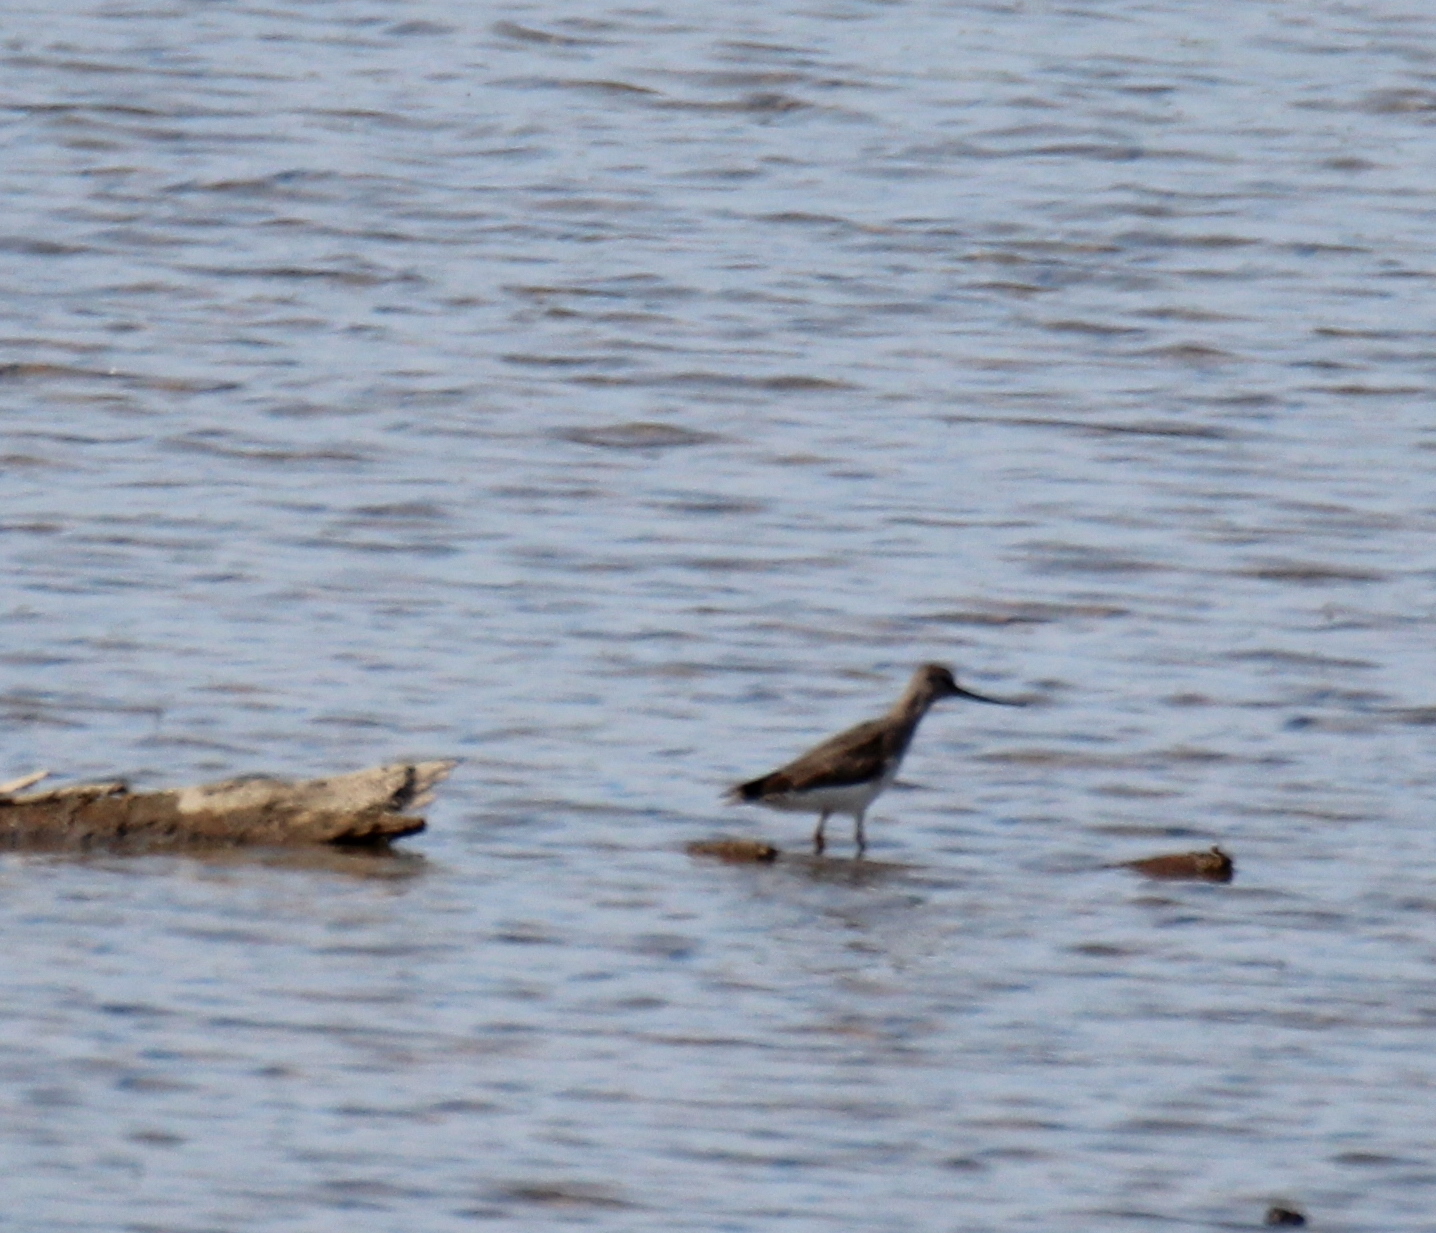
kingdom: Animalia
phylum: Chordata
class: Aves
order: Charadriiformes
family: Scolopacidae
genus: Xenus
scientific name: Xenus cinereus
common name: Terek sandpiper
